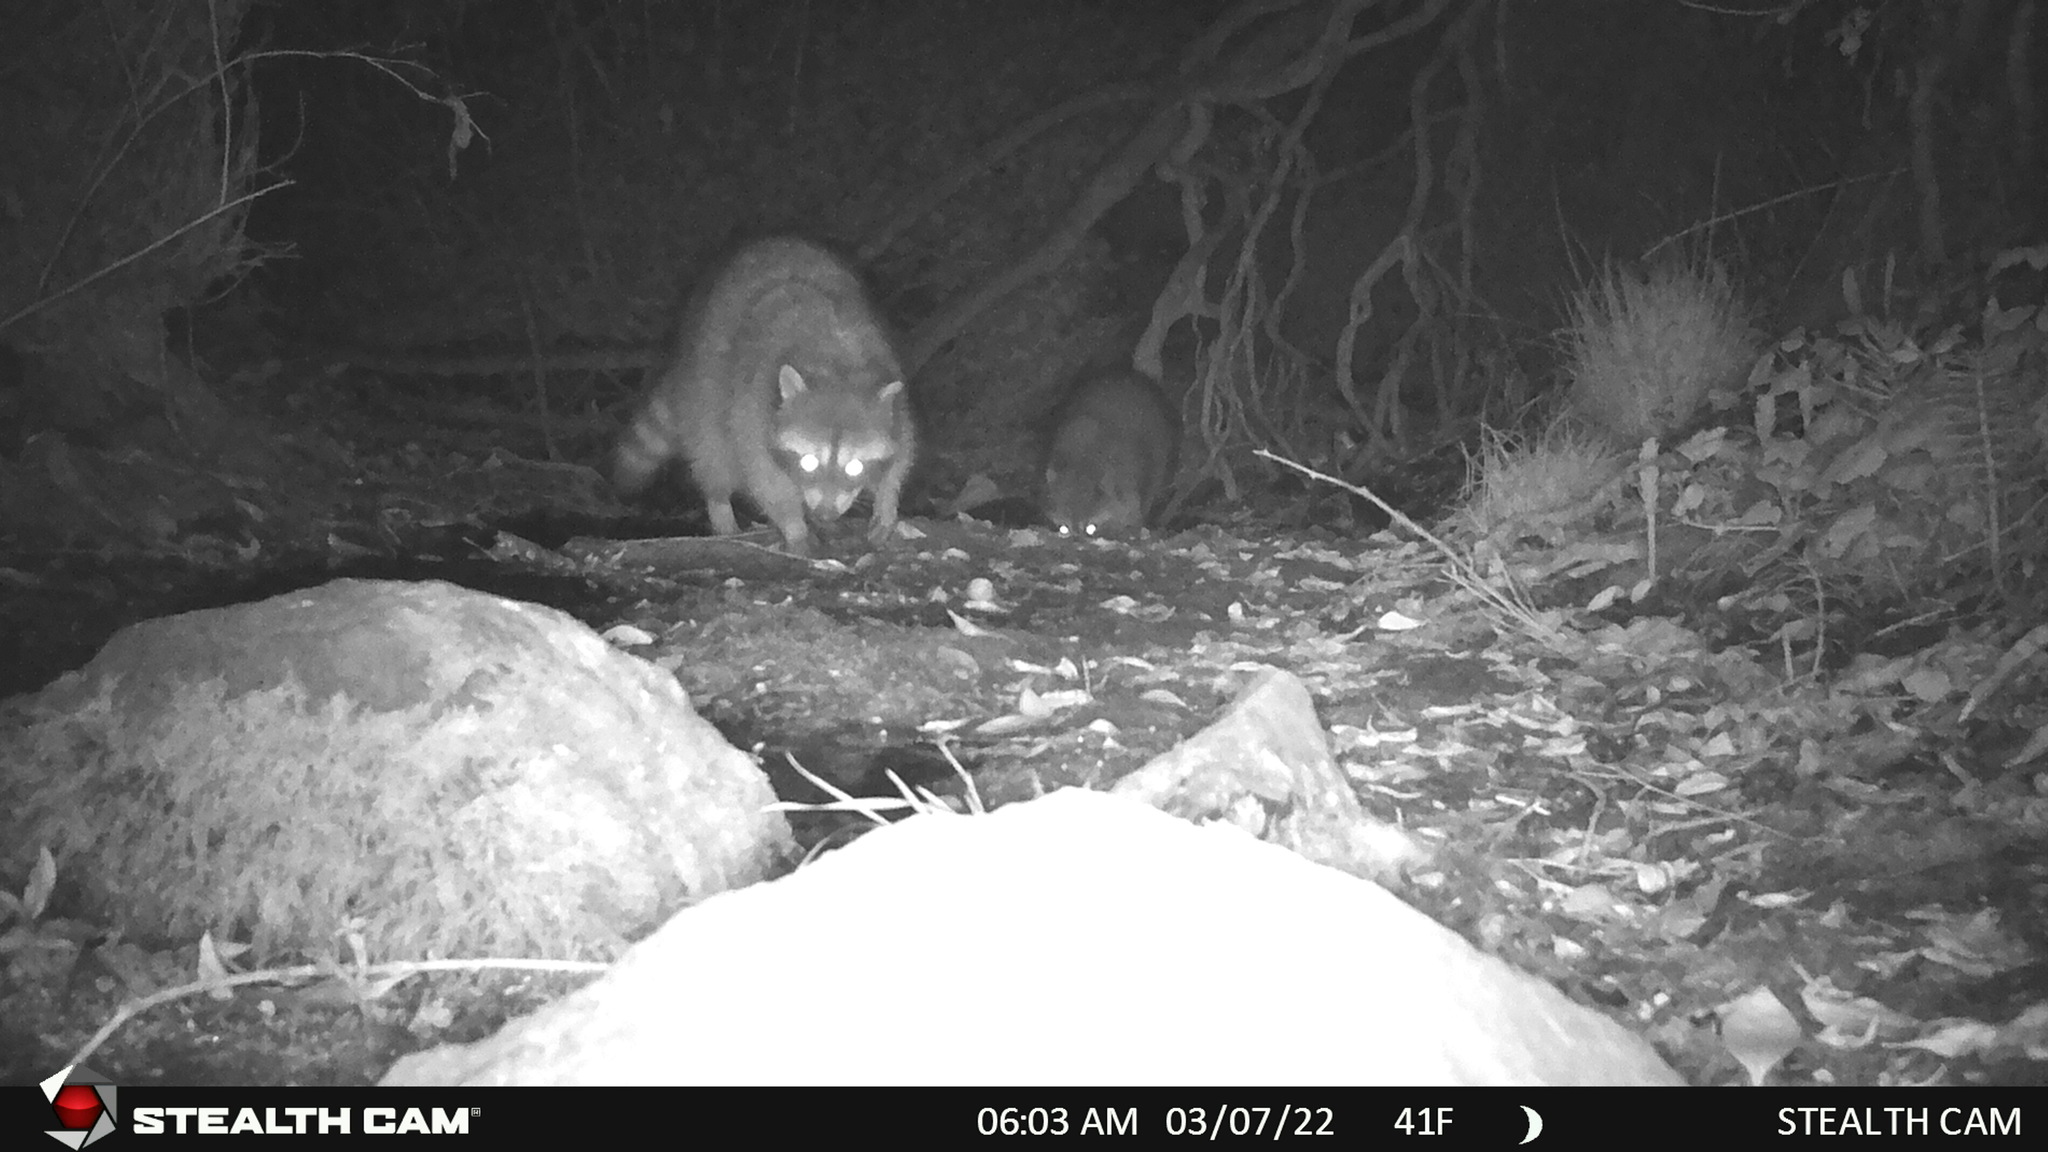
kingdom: Animalia
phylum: Chordata
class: Mammalia
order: Carnivora
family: Procyonidae
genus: Procyon
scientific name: Procyon lotor
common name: Raccoon
